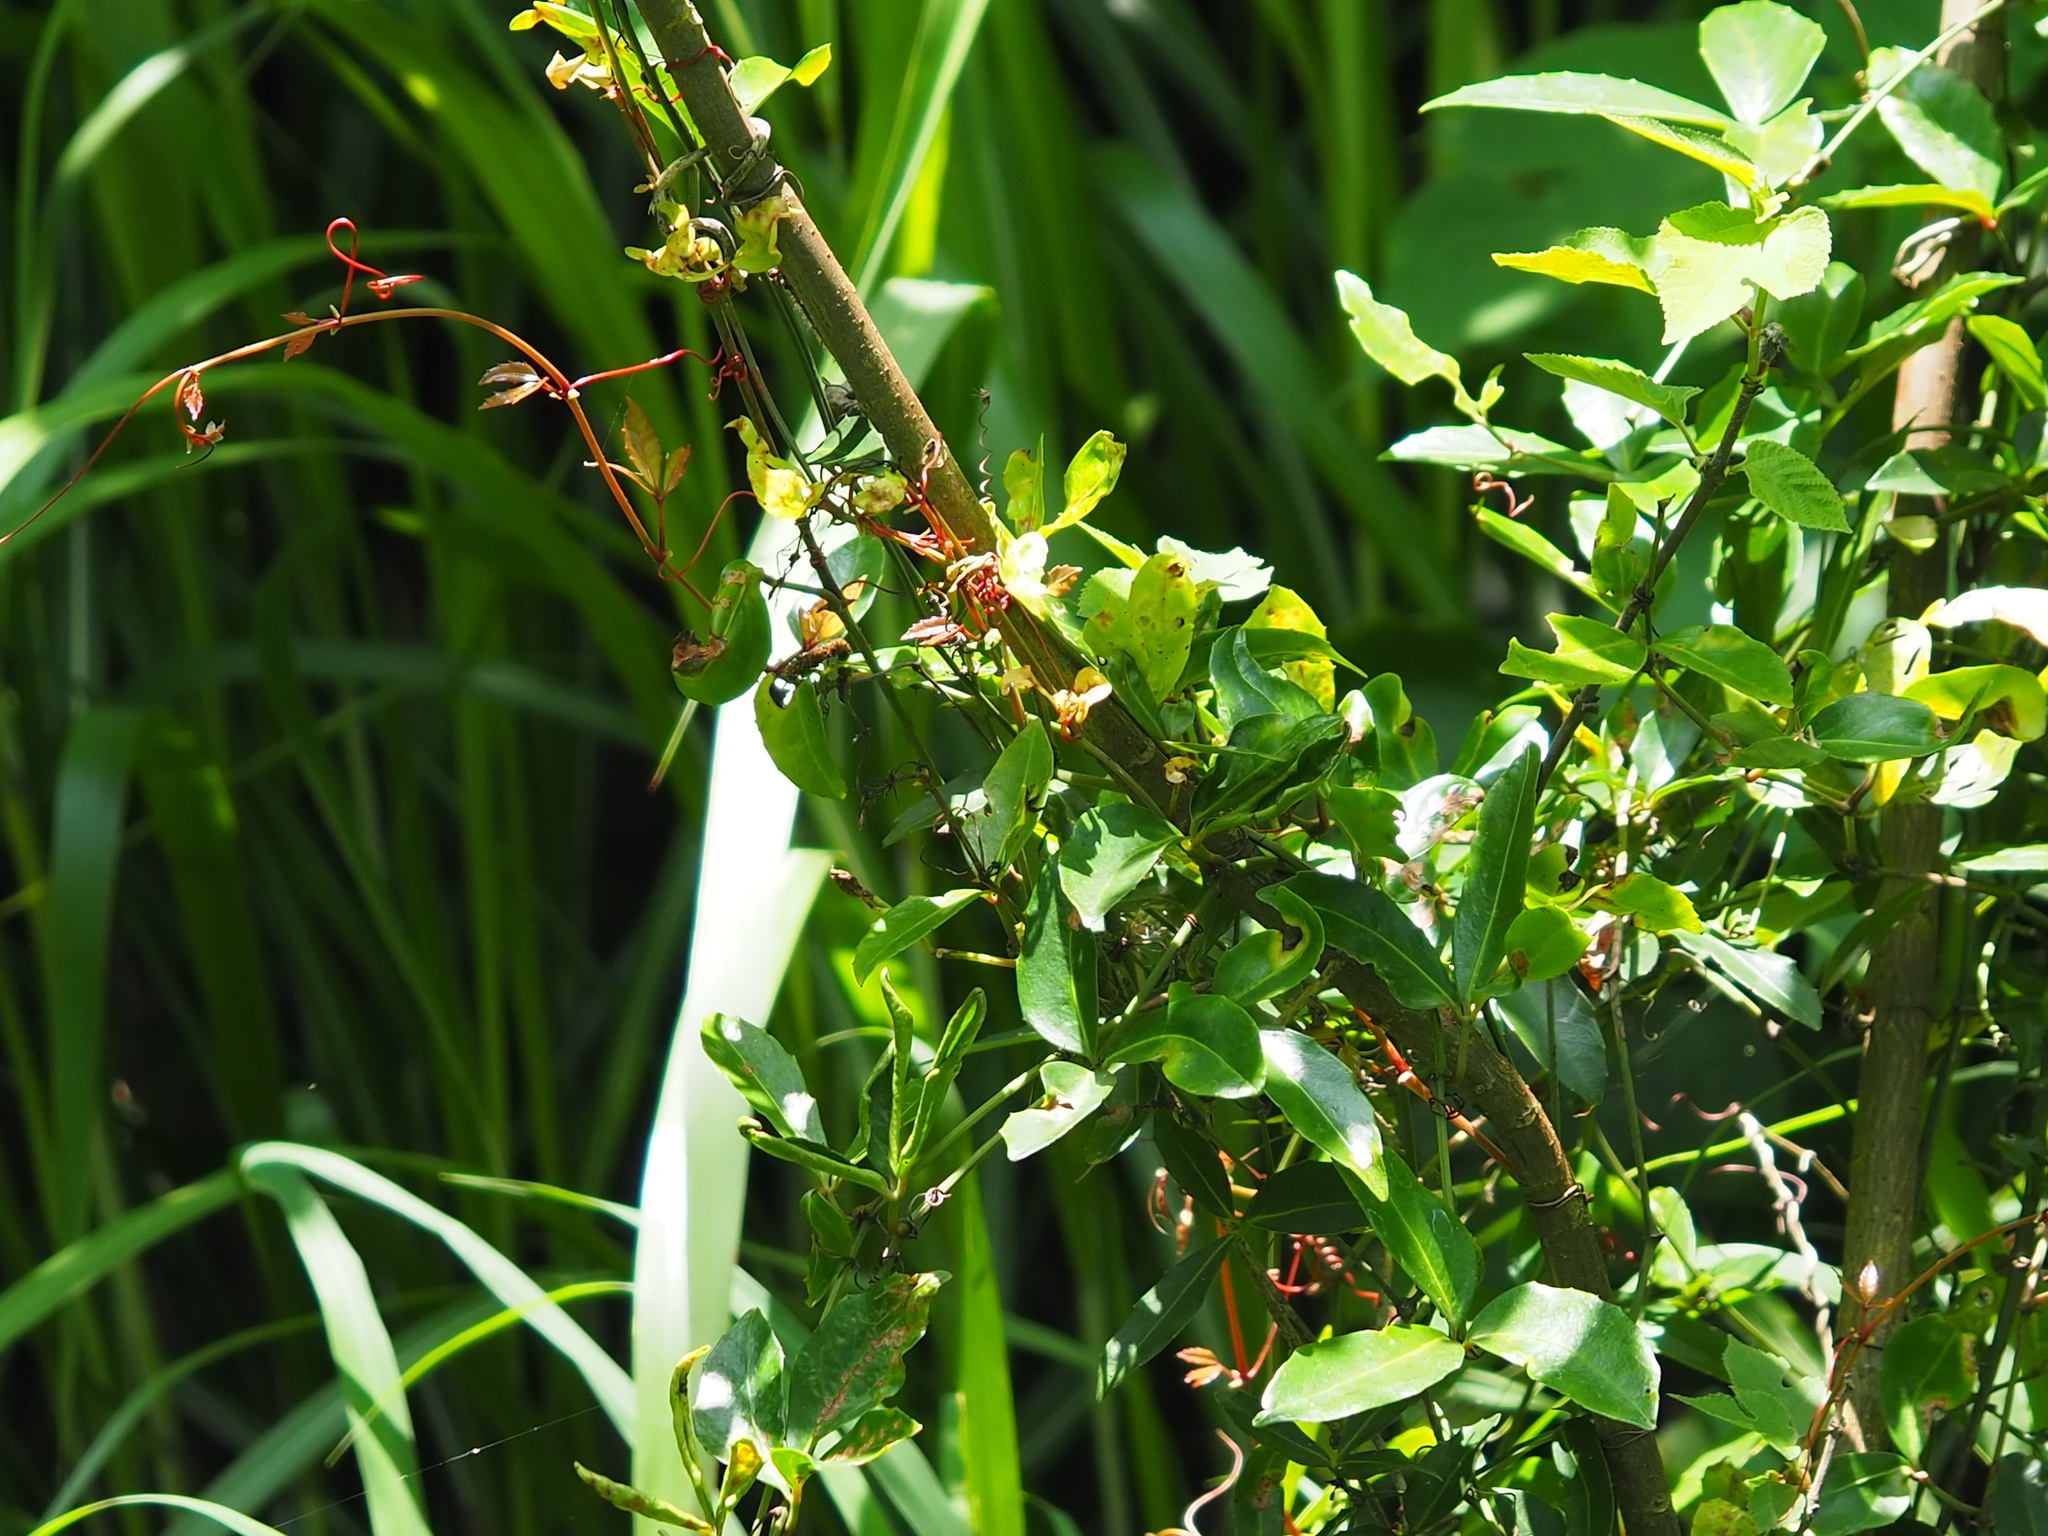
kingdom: Plantae
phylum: Tracheophyta
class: Magnoliopsida
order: Vitales
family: Vitaceae
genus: Tetrastigma
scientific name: Tetrastigma formosanum
